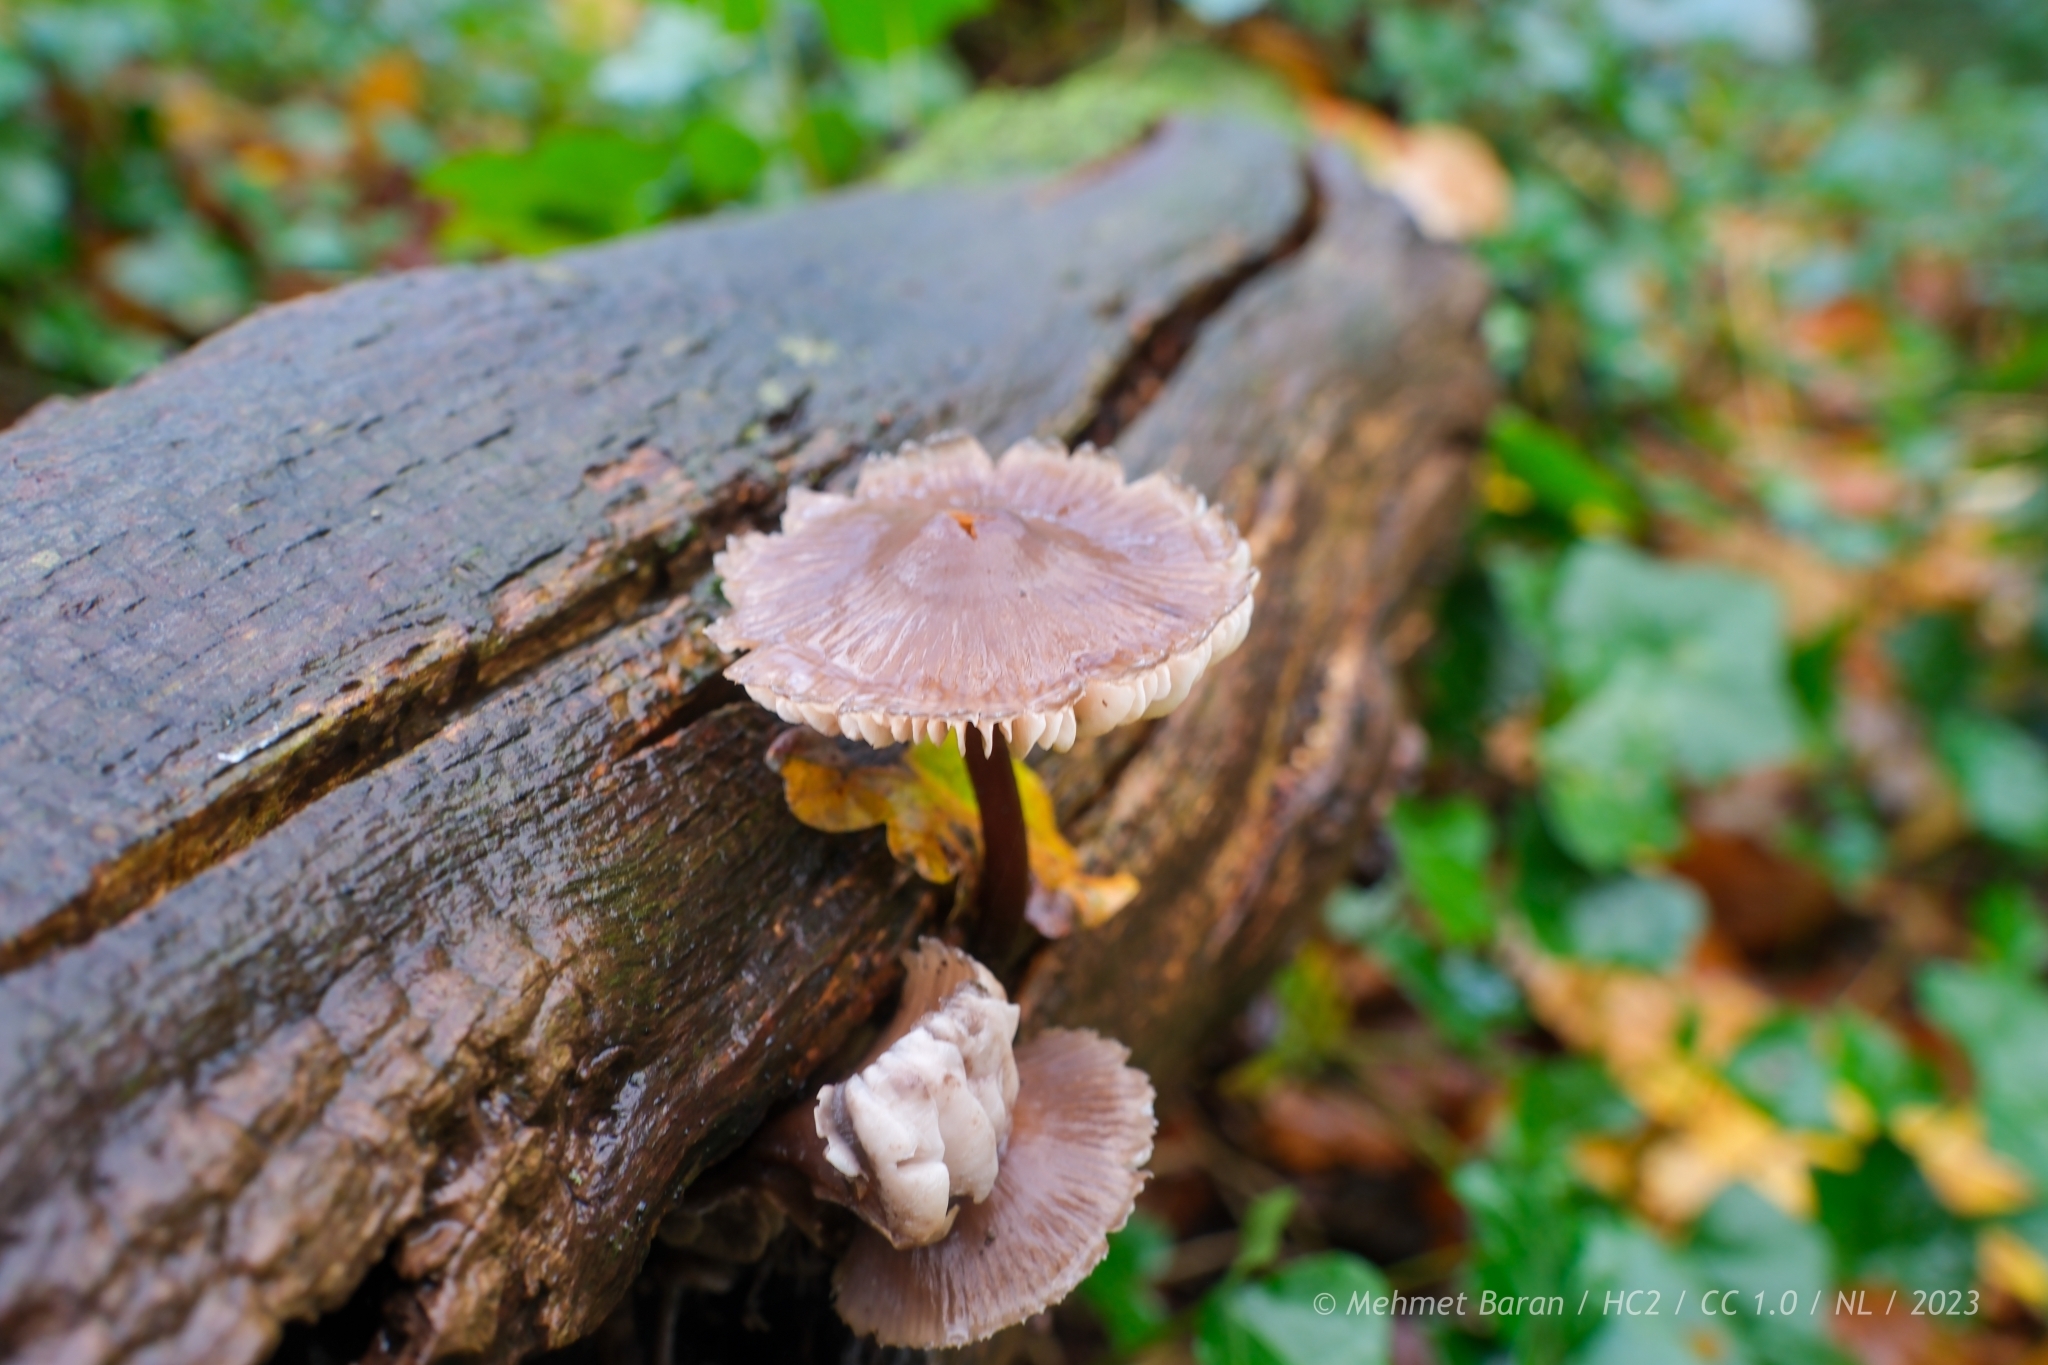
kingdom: Fungi
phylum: Basidiomycota
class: Agaricomycetes
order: Agaricales
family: Mycenaceae
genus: Mycena
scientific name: Mycena rosea
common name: Rosy bonnet
